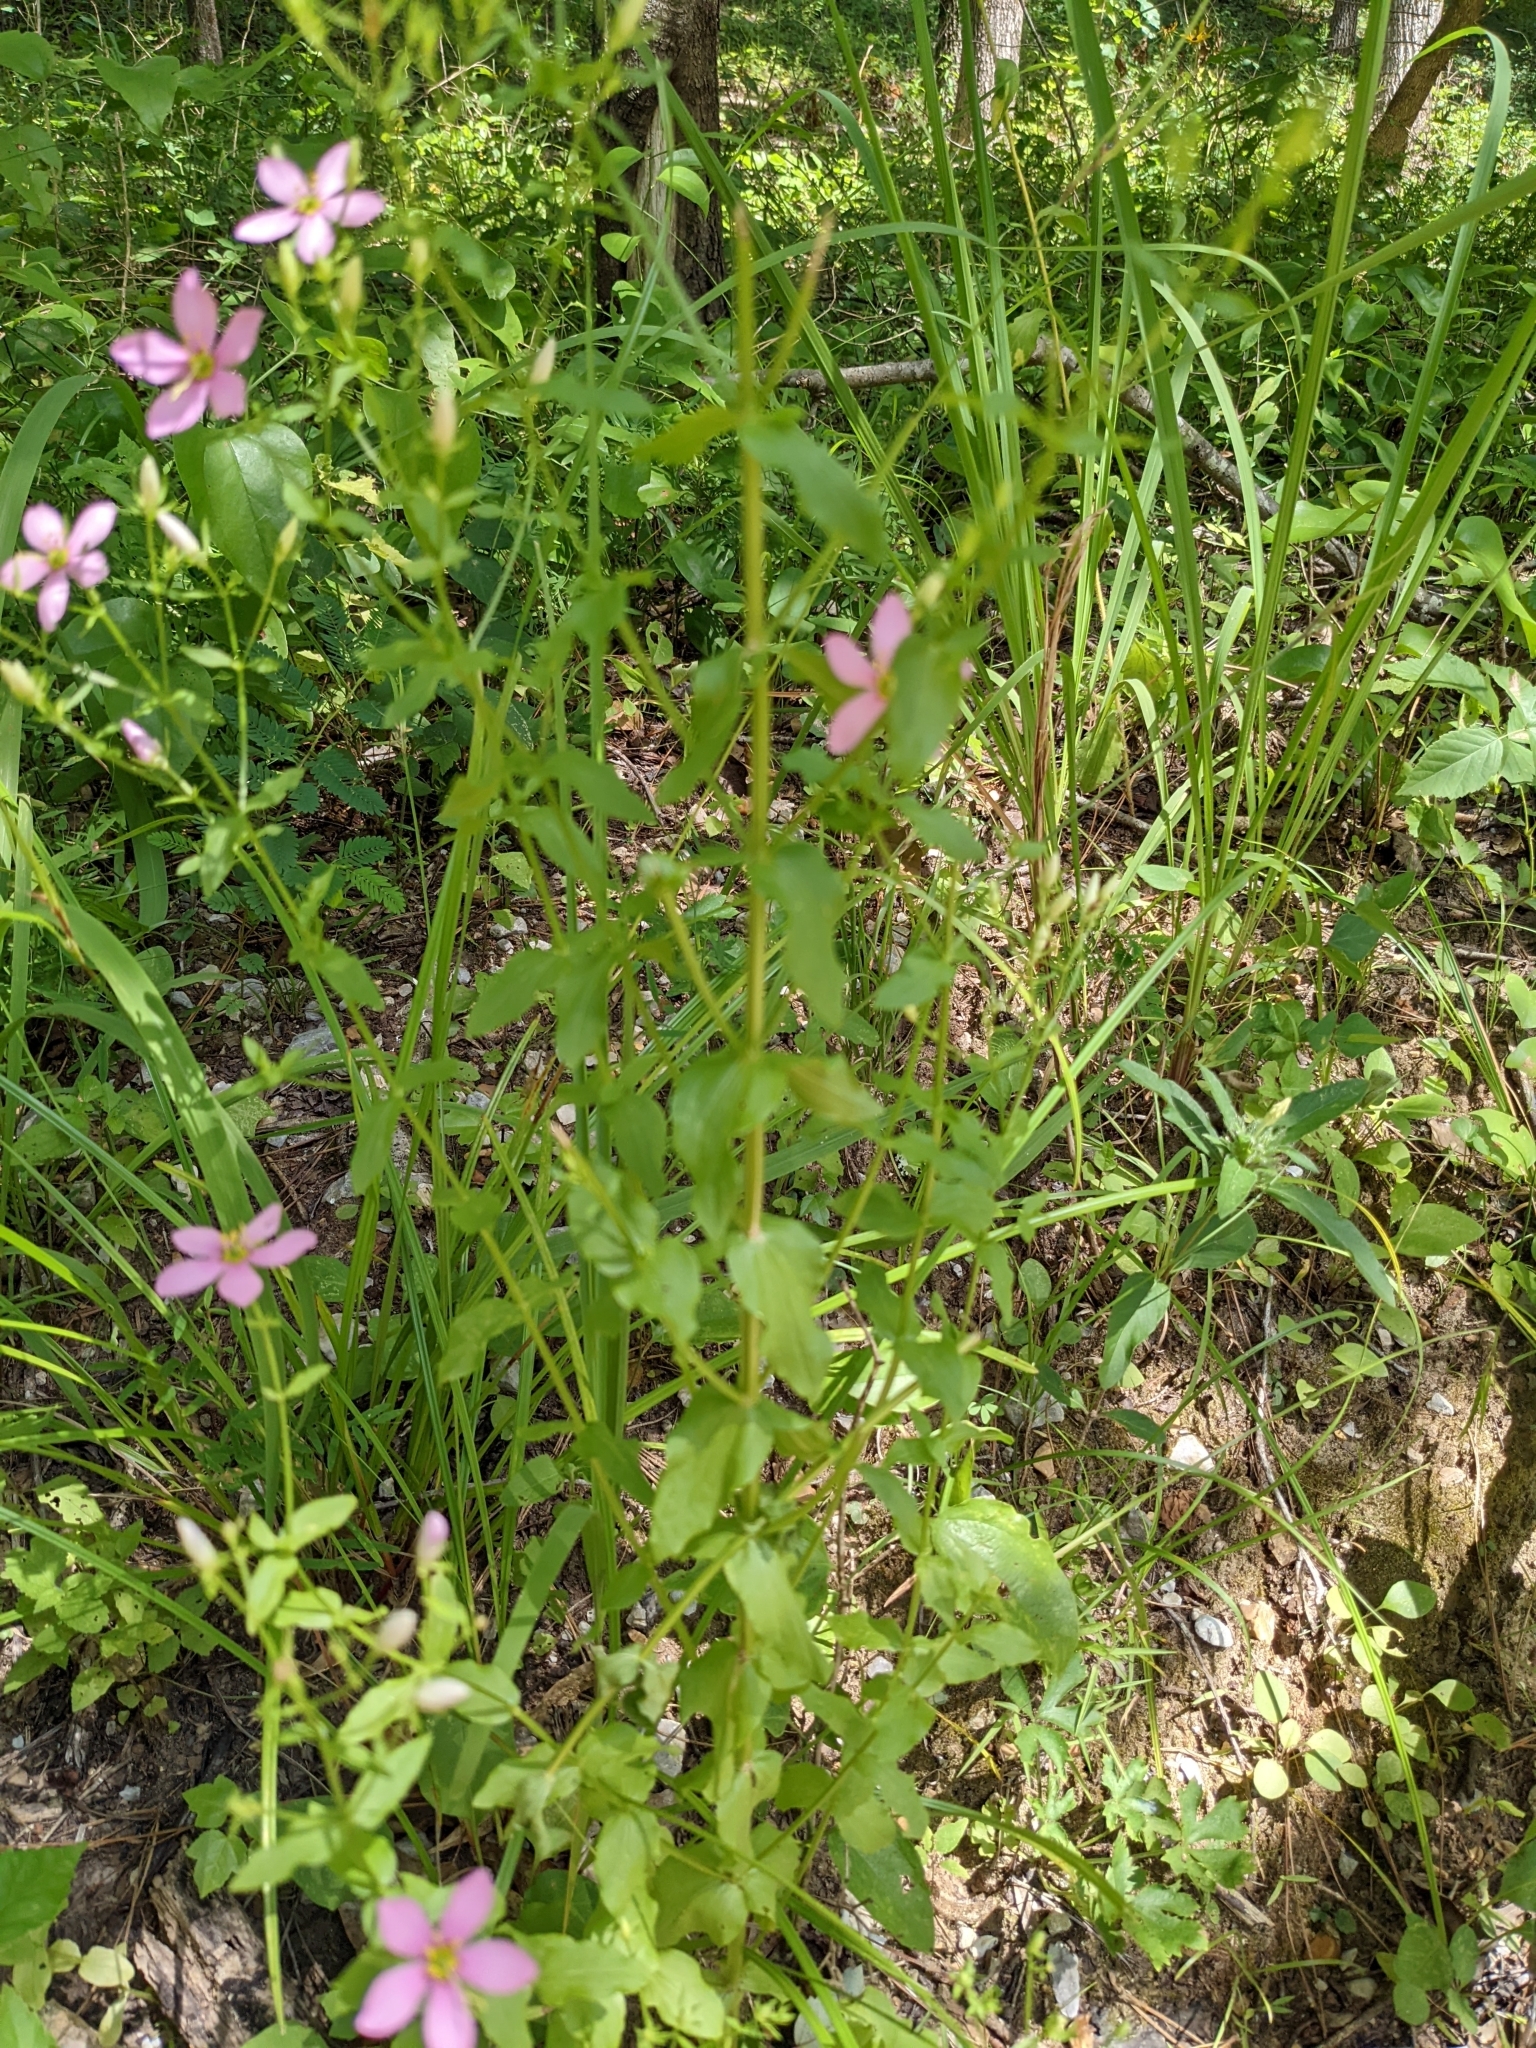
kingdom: Plantae
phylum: Tracheophyta
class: Magnoliopsida
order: Gentianales
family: Gentianaceae
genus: Sabatia
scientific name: Sabatia angularis
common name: Rose-pink
